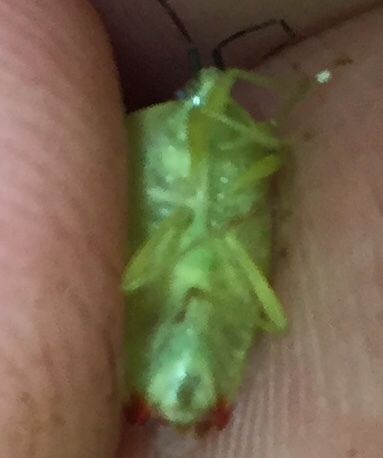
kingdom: Animalia
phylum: Arthropoda
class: Insecta
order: Hemiptera
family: Acanthosomatidae
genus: Elasmostethus
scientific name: Elasmostethus atricornis
